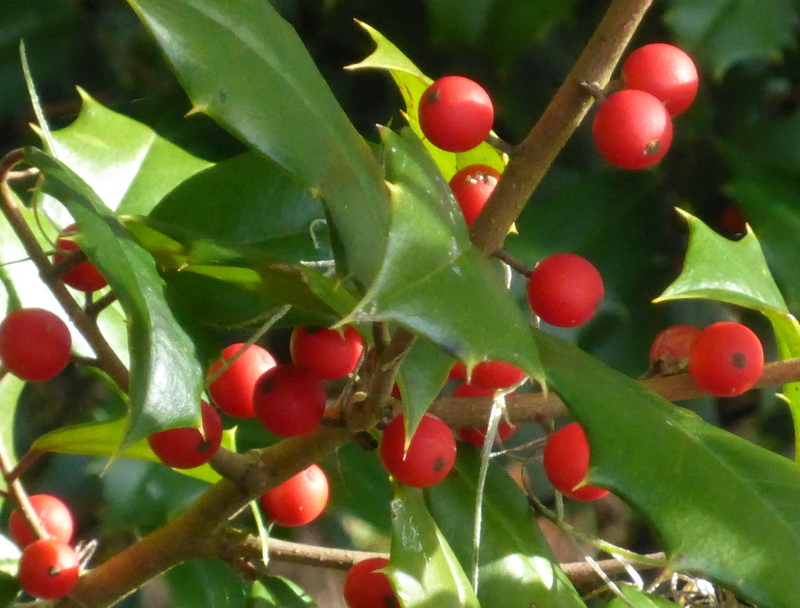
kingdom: Plantae
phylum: Tracheophyta
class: Magnoliopsida
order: Aquifoliales
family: Aquifoliaceae
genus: Ilex
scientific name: Ilex opaca
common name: American holly
